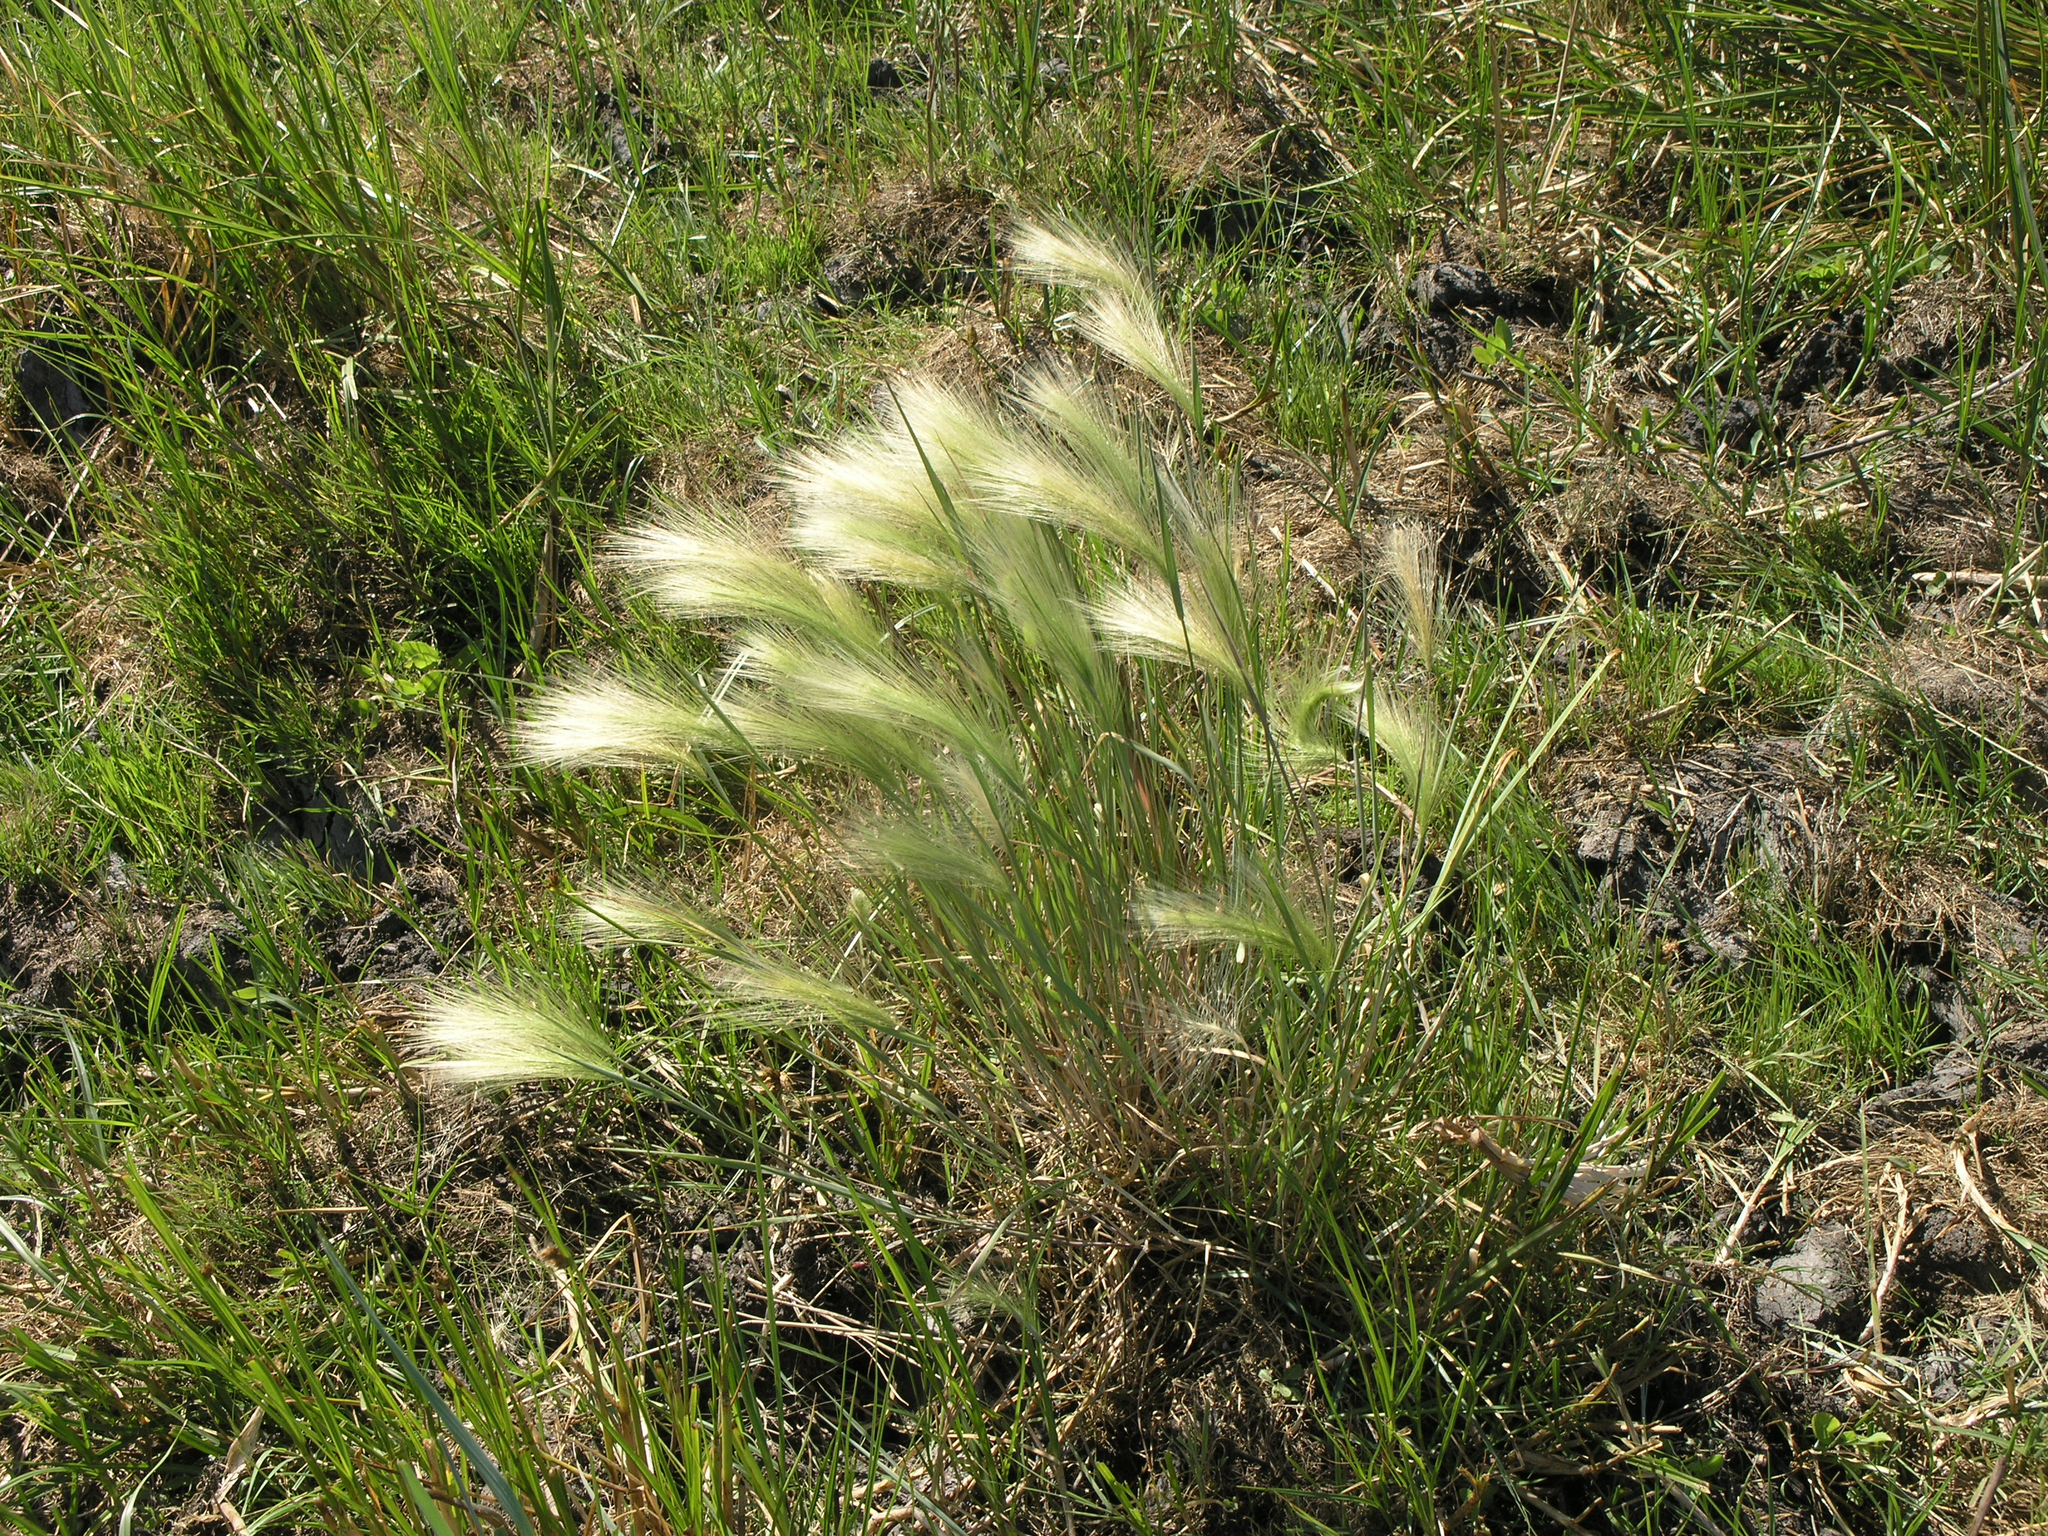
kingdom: Plantae
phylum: Tracheophyta
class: Liliopsida
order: Poales
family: Poaceae
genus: Hordeum
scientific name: Hordeum jubatum
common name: Foxtail barley
